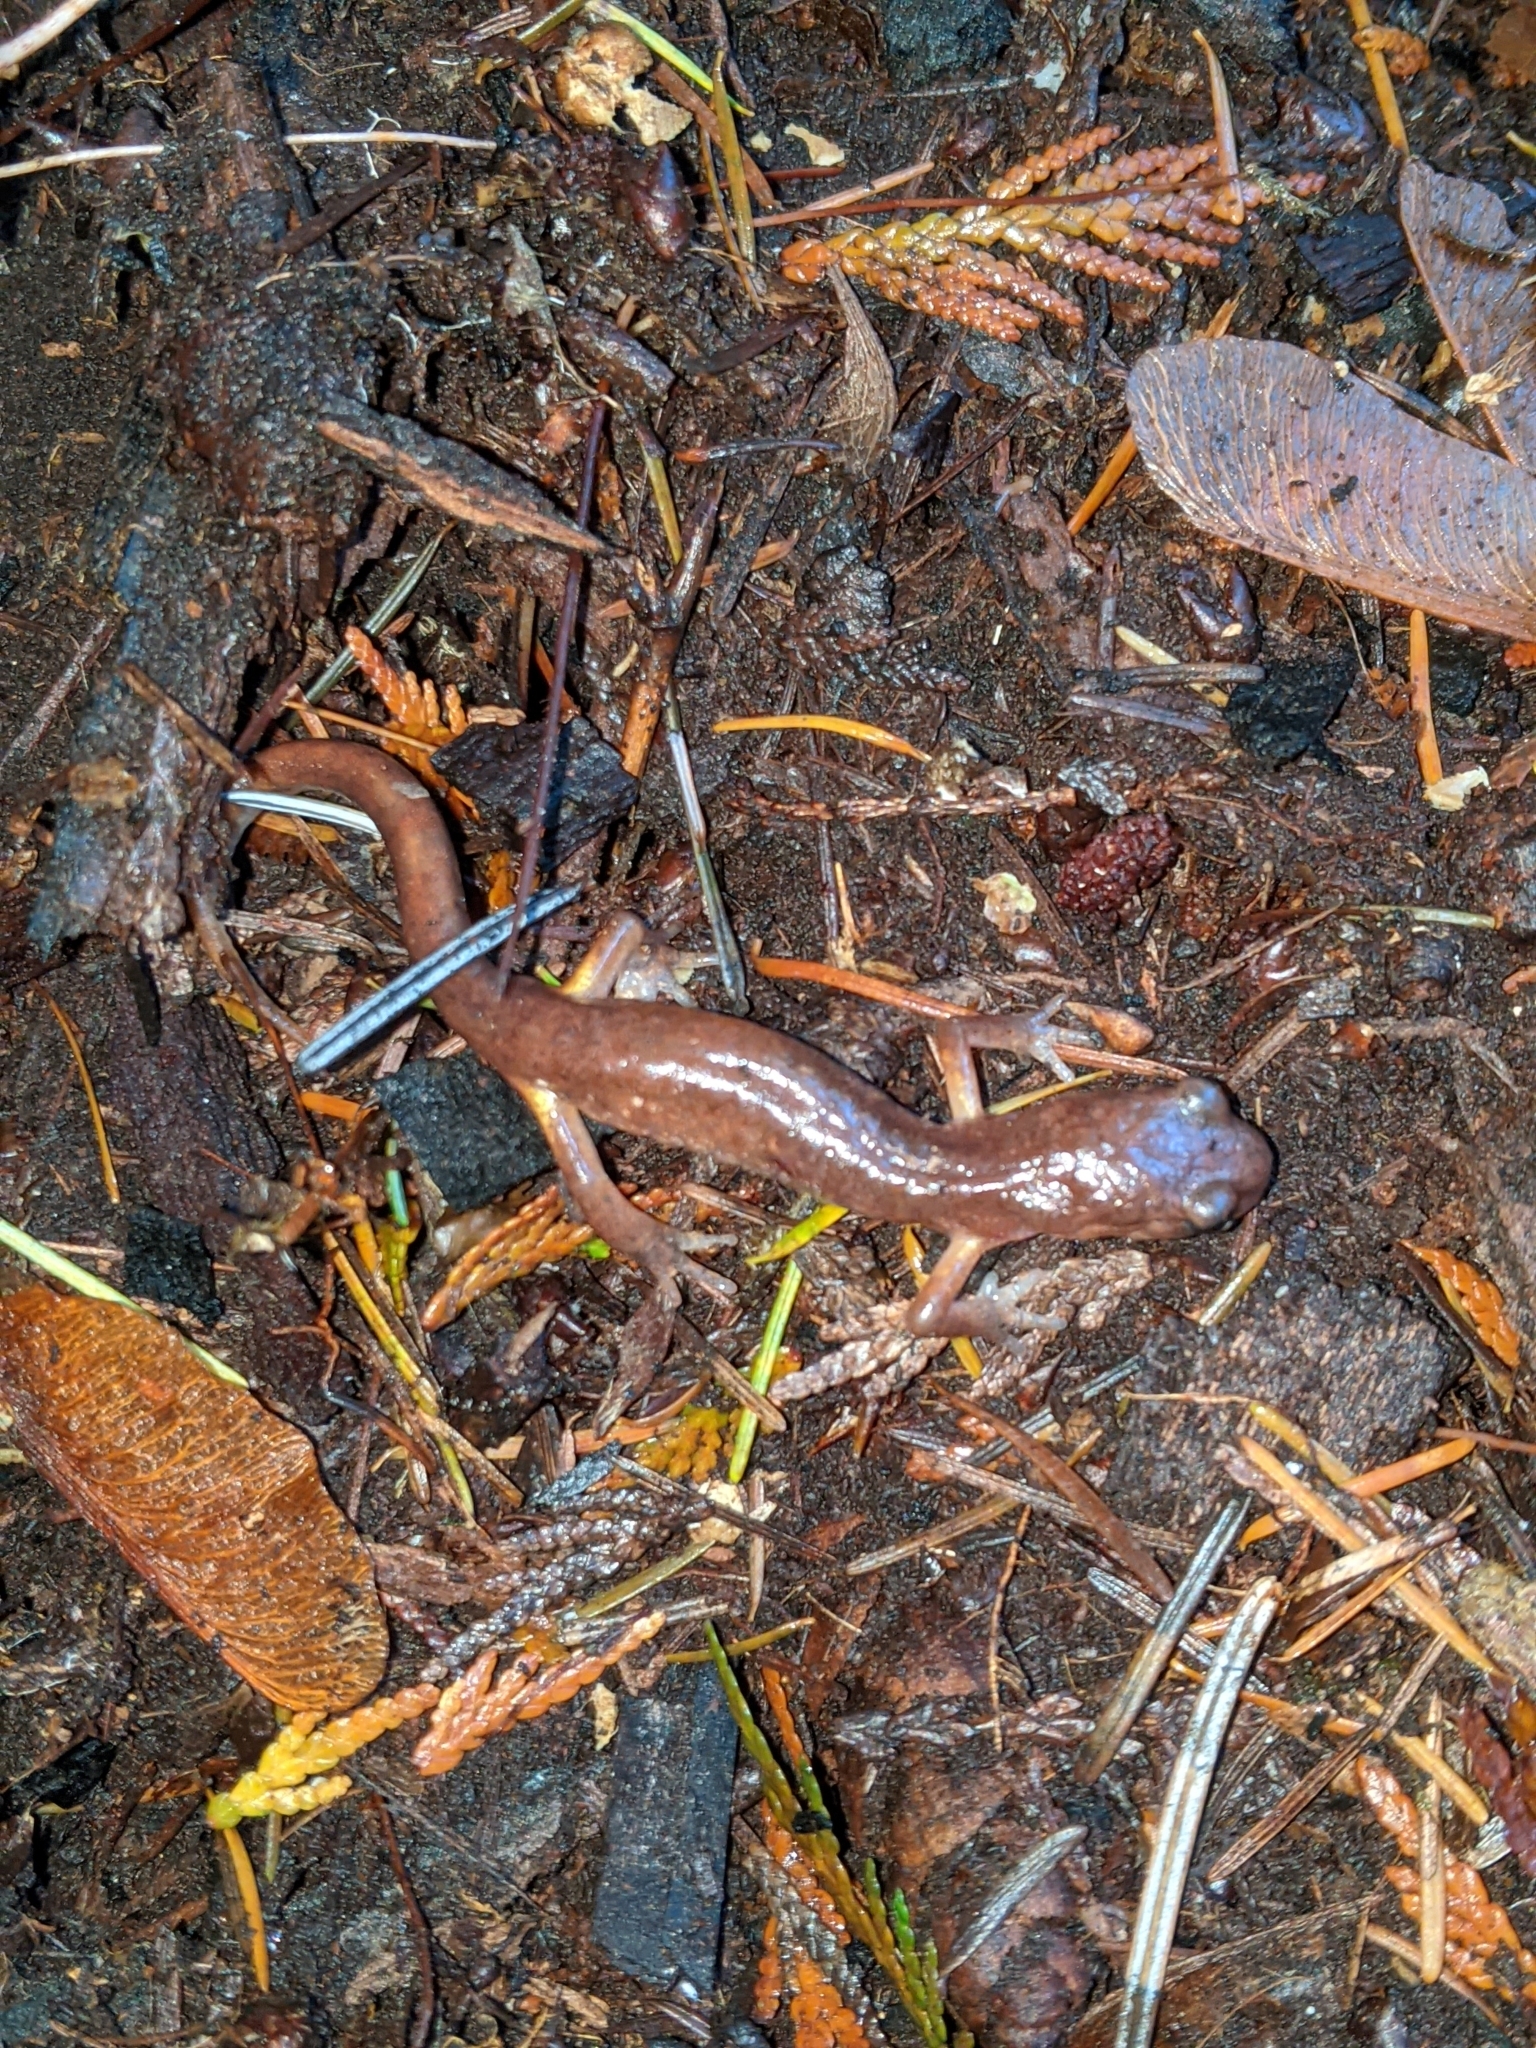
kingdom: Animalia
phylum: Chordata
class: Amphibia
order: Caudata
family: Plethodontidae
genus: Ensatina
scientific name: Ensatina eschscholtzii
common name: Ensatina
